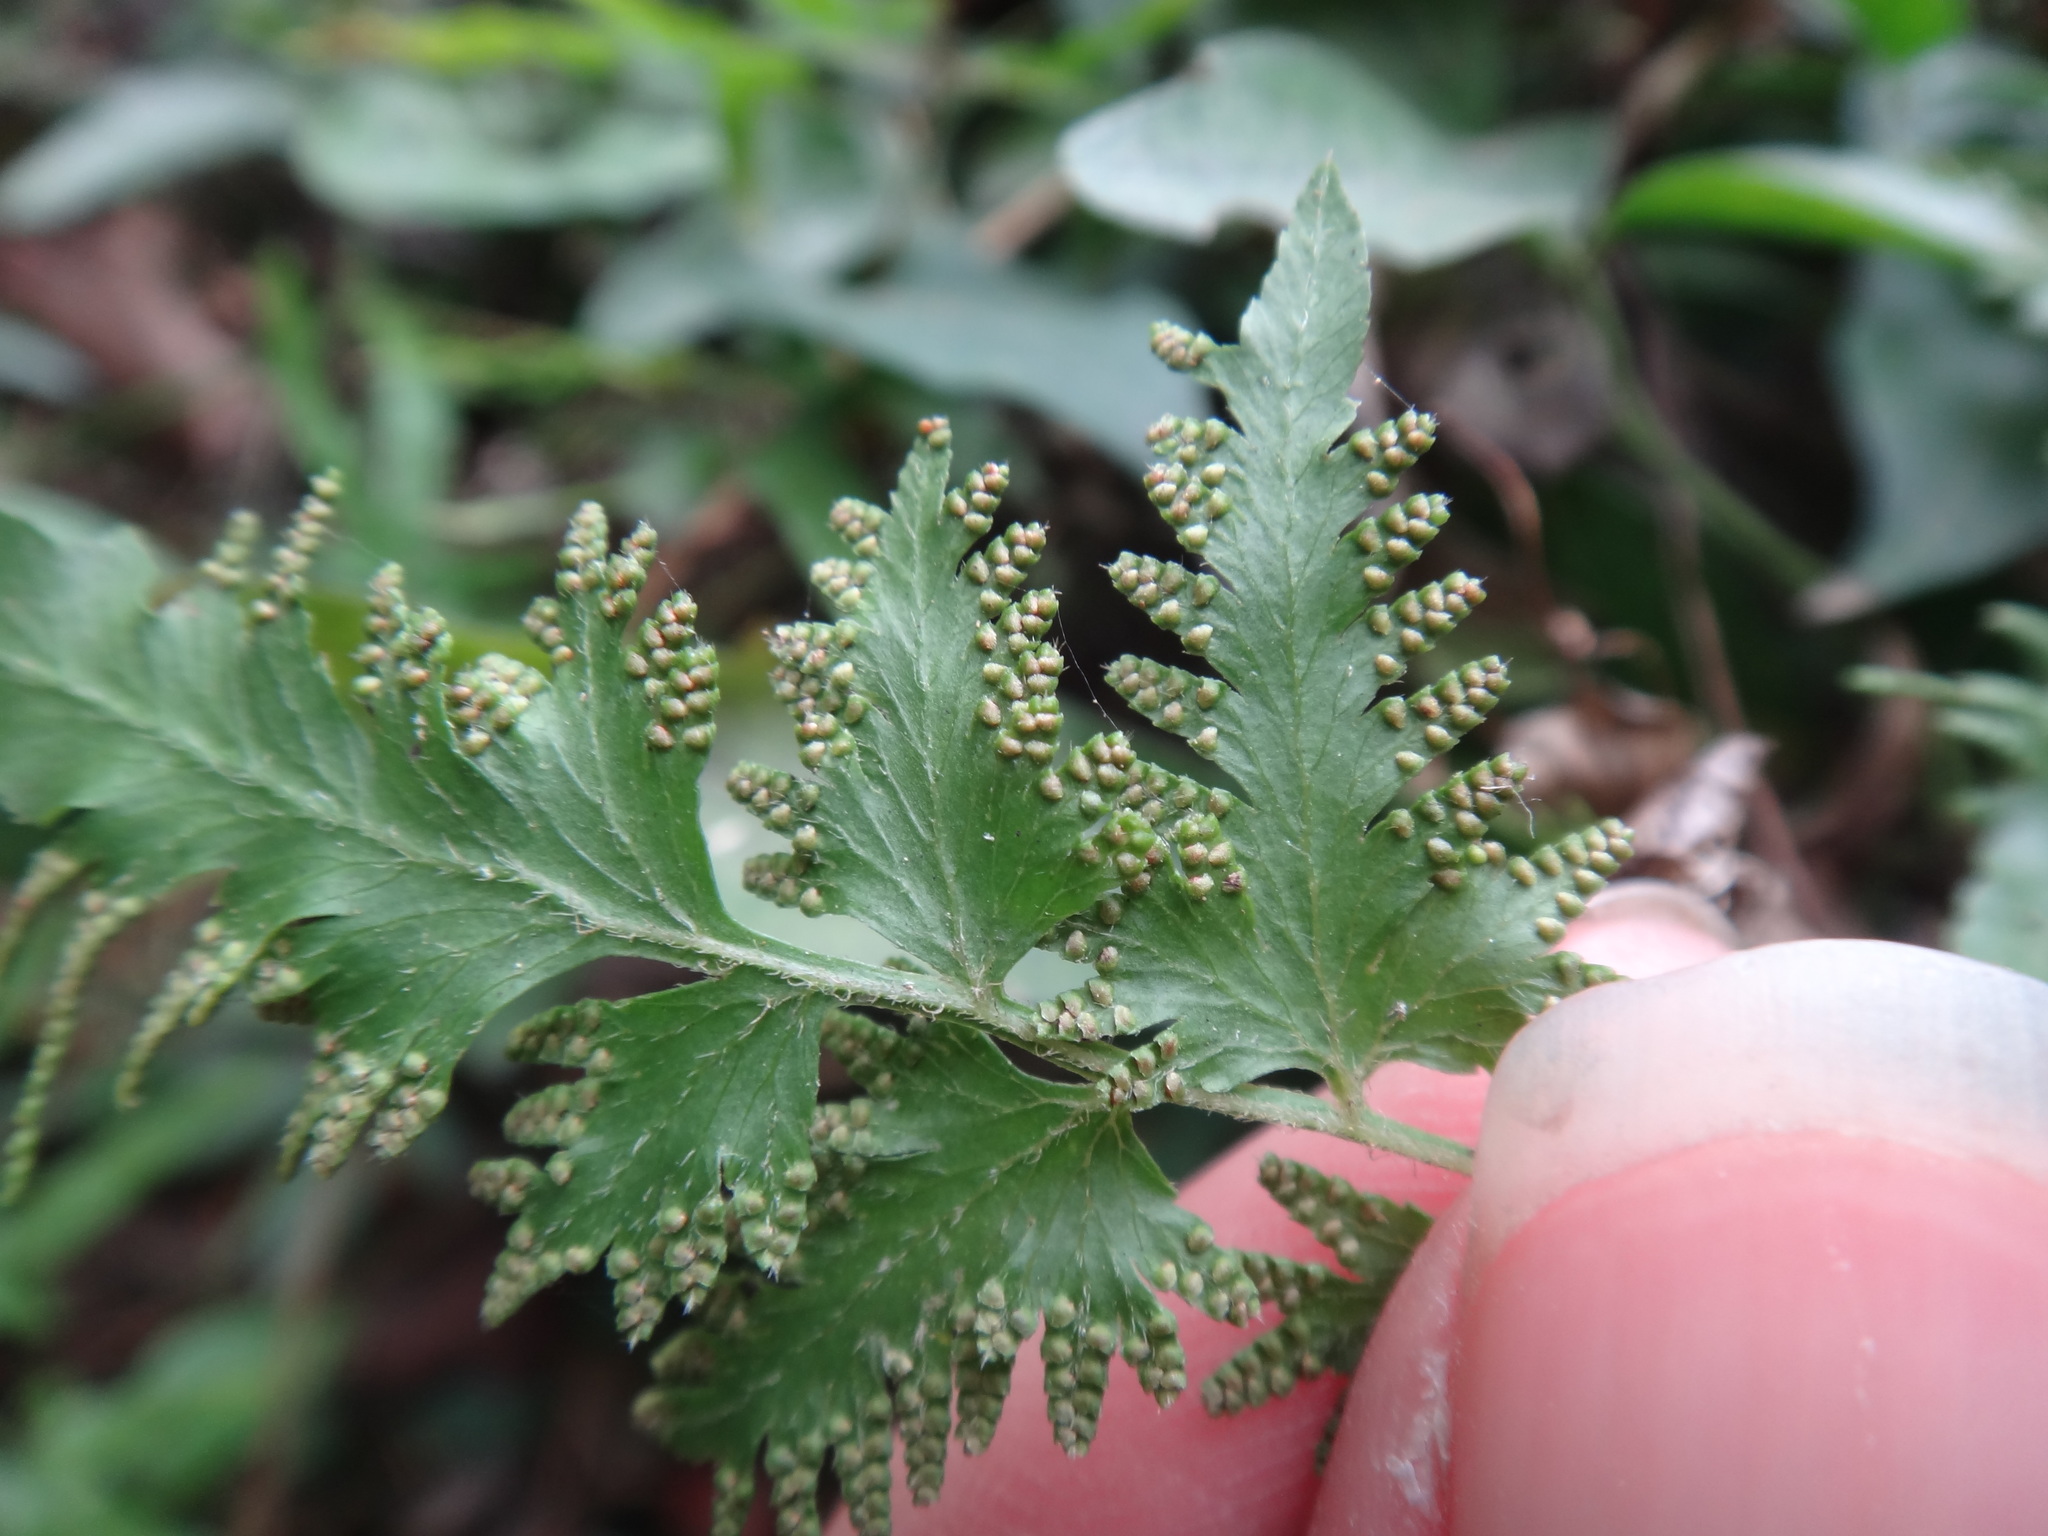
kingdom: Plantae
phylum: Tracheophyta
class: Polypodiopsida
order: Schizaeales
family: Lygodiaceae
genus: Lygodium
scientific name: Lygodium japonicum
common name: Japanese climbing fern
